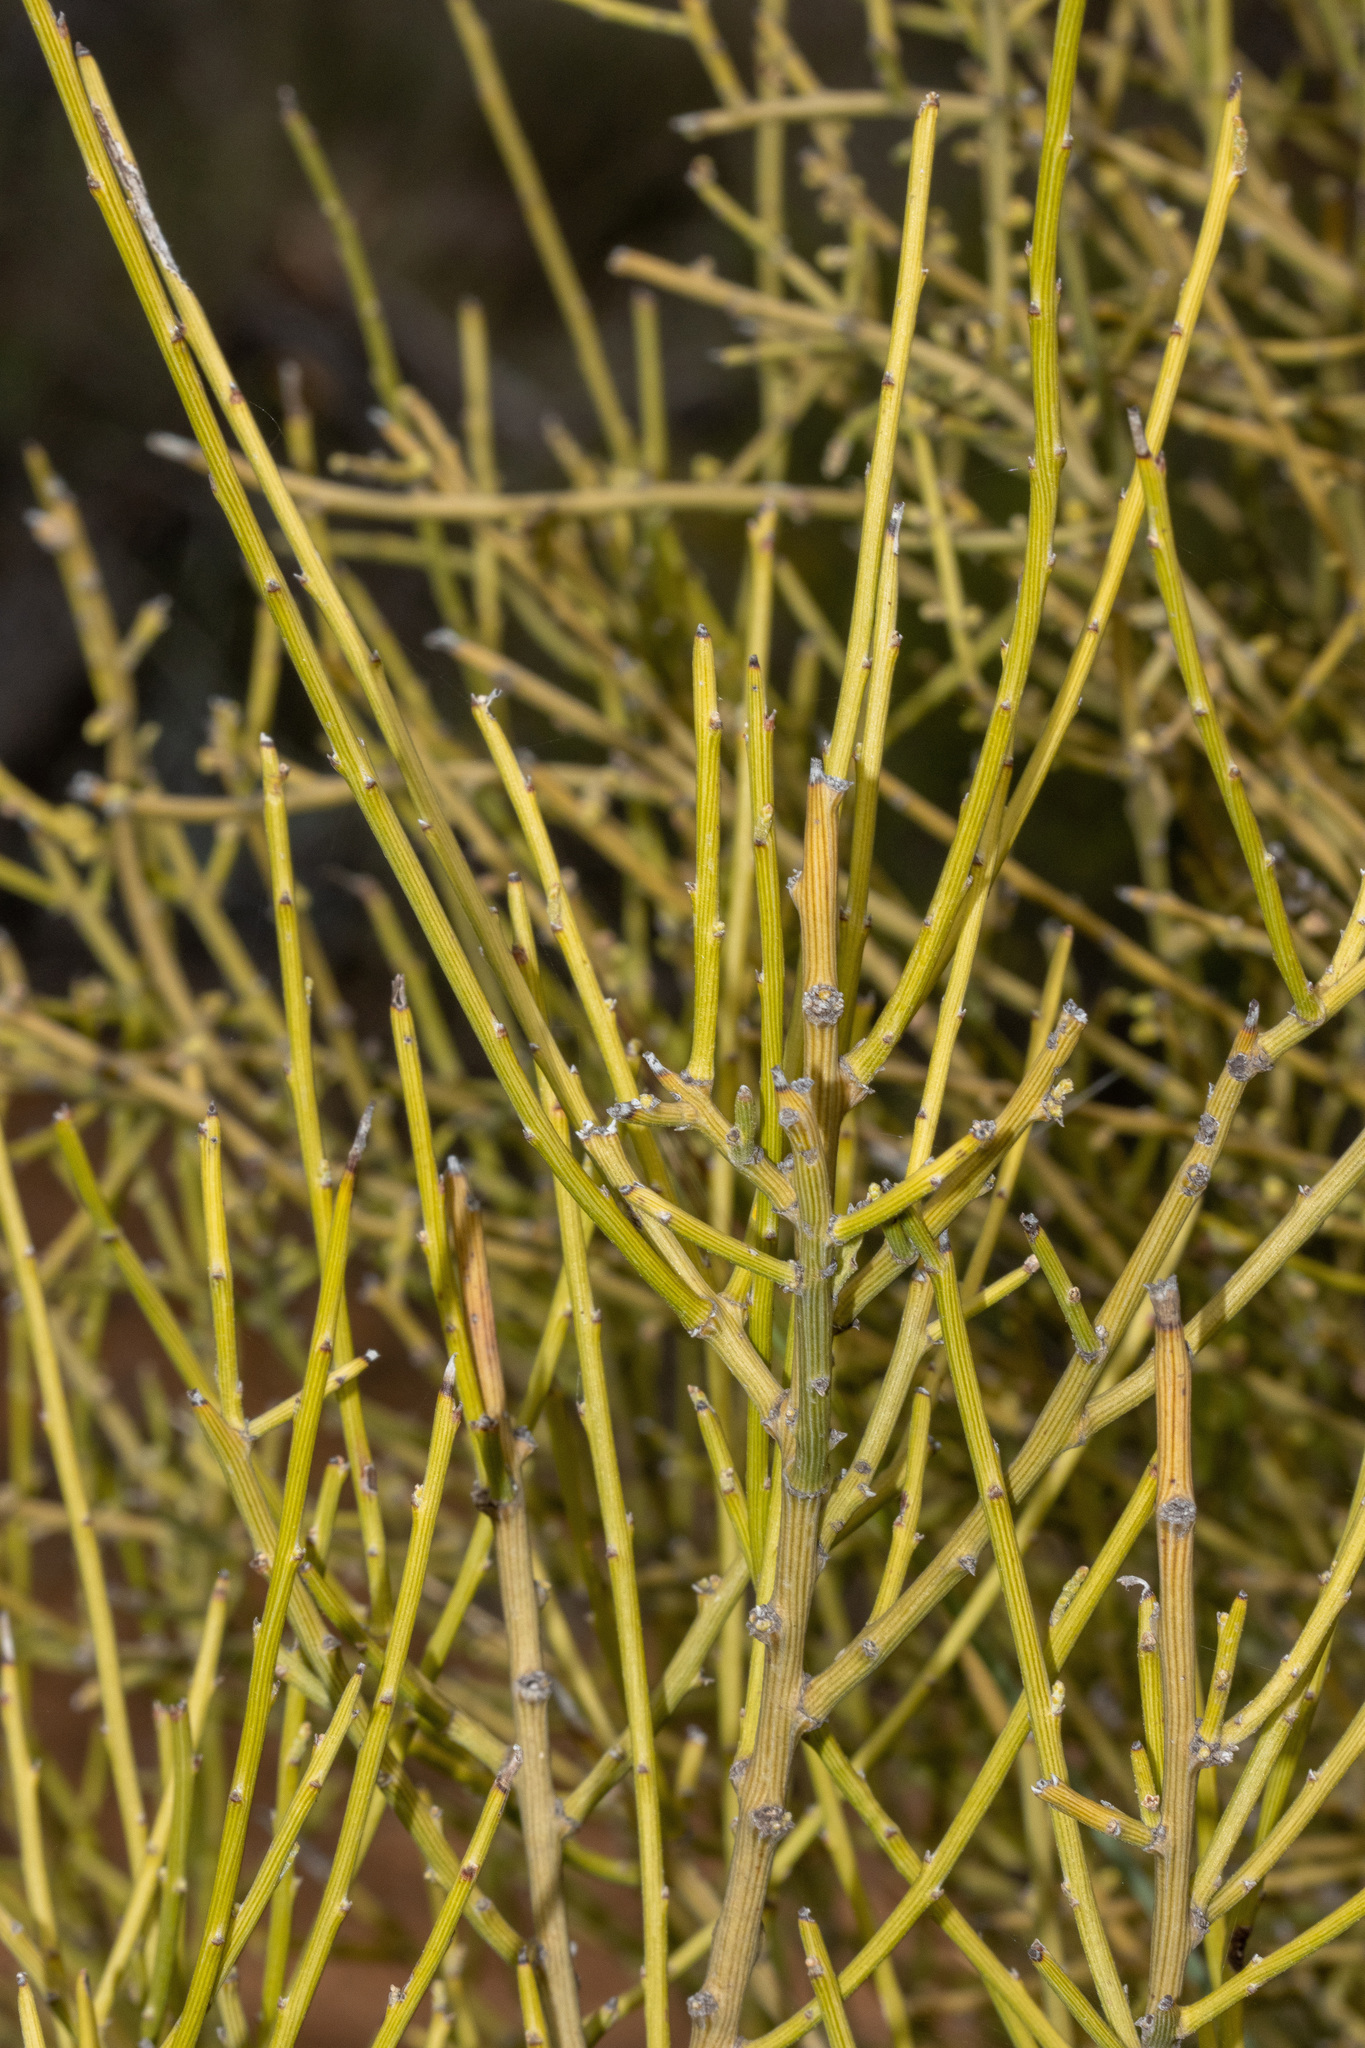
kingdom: Plantae
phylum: Tracheophyta
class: Magnoliopsida
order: Santalales
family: Santalaceae
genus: Exocarpos
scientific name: Exocarpos aphyllus
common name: Leafless ballart
